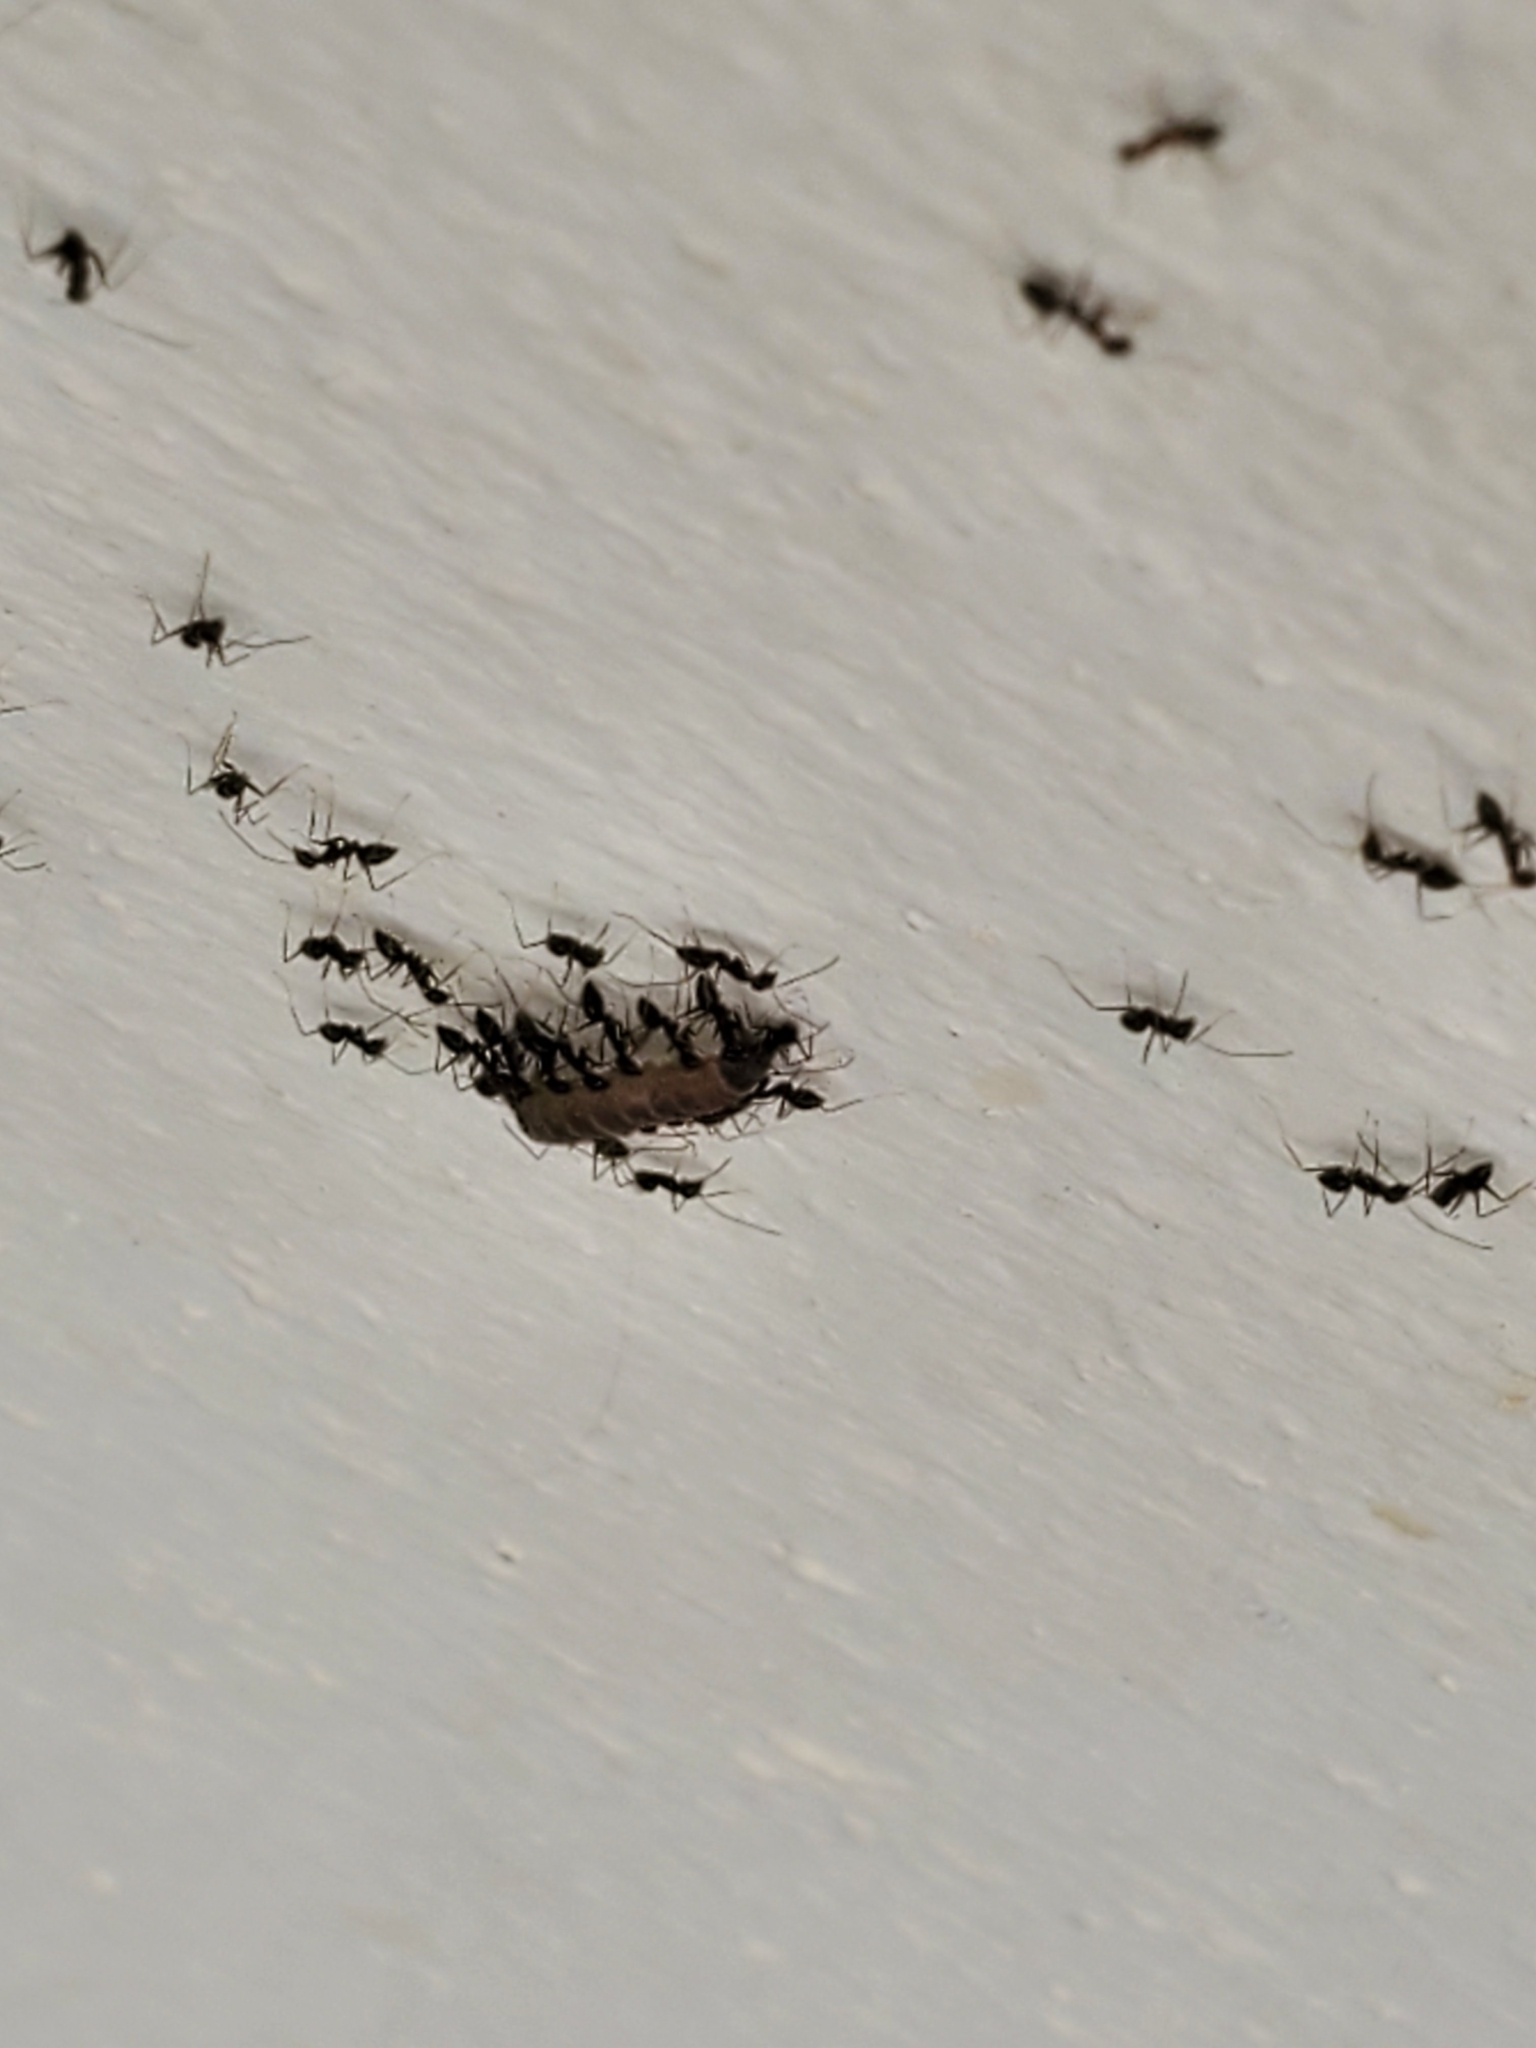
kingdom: Animalia
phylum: Arthropoda
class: Insecta
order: Hymenoptera
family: Formicidae
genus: Paratrechina
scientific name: Paratrechina longicornis
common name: Longhorned crazy ant
